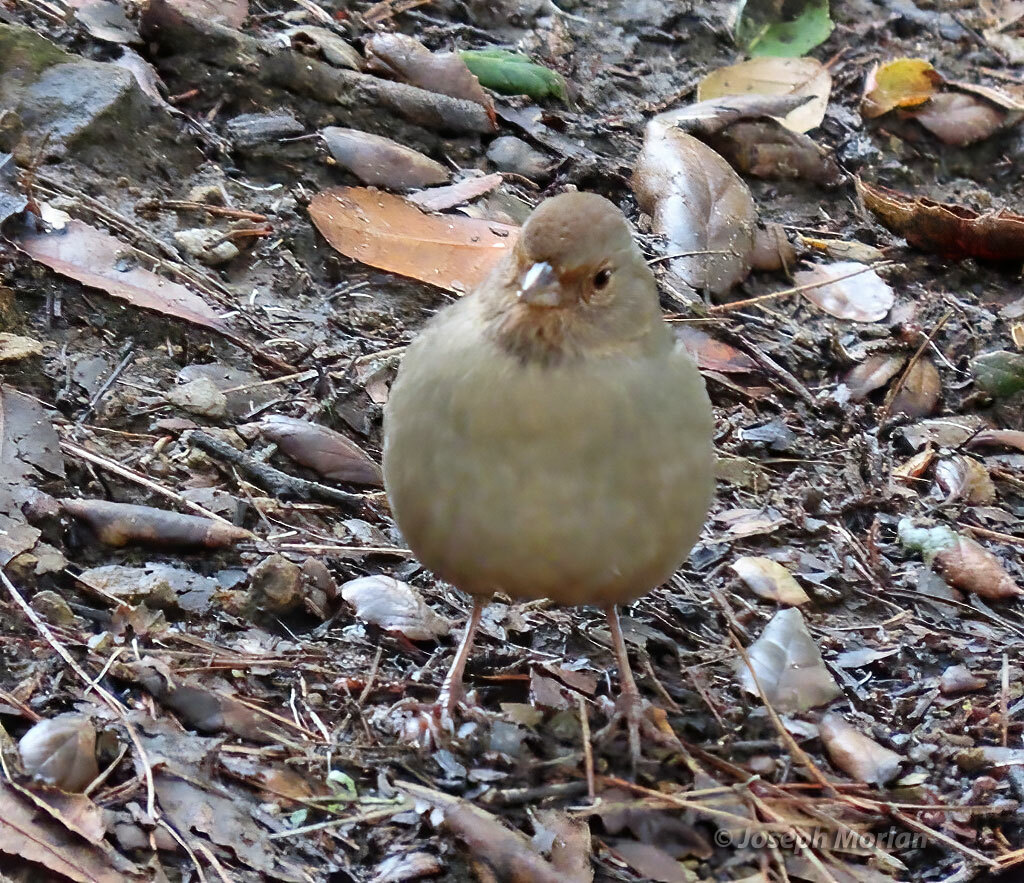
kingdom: Animalia
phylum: Chordata
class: Aves
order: Passeriformes
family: Passerellidae
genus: Melozone
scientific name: Melozone crissalis
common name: California towhee
